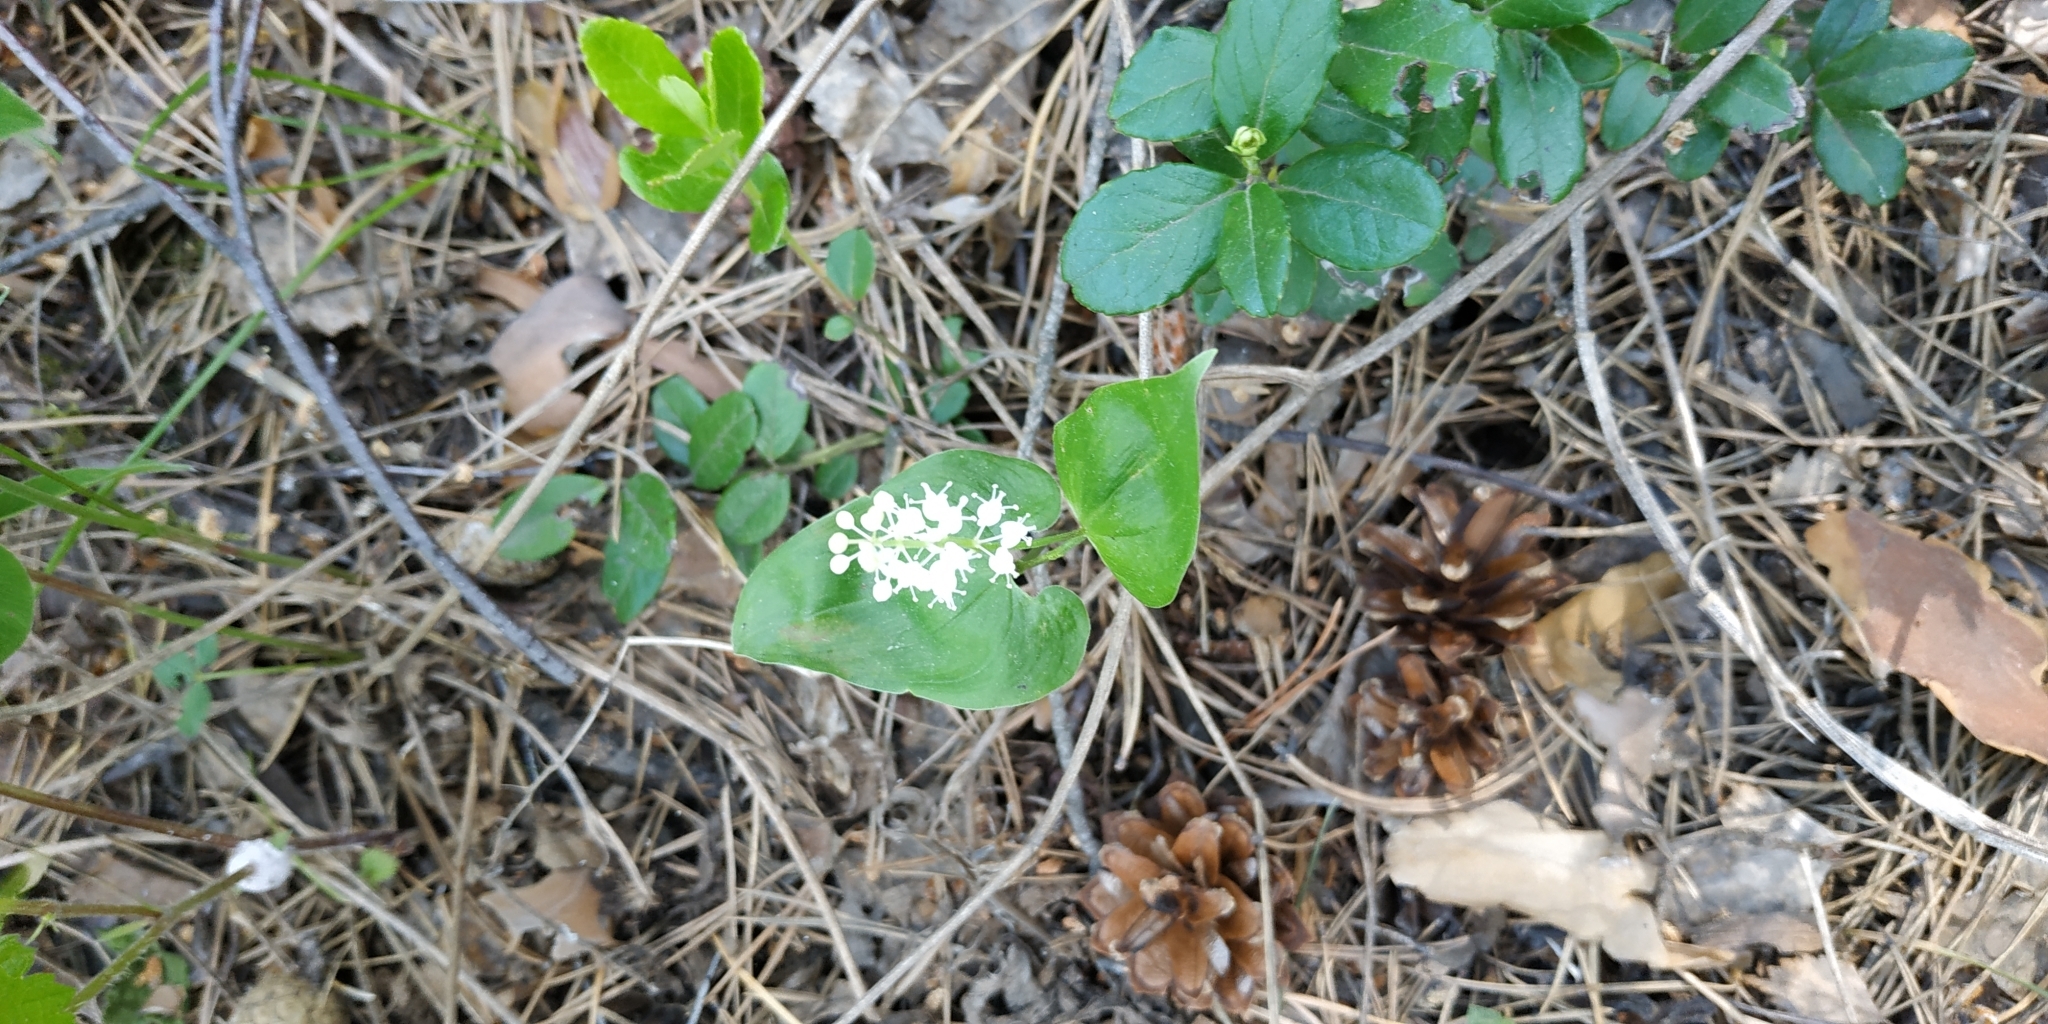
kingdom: Plantae
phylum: Tracheophyta
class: Liliopsida
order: Asparagales
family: Asparagaceae
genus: Maianthemum
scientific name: Maianthemum bifolium
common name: May lily
